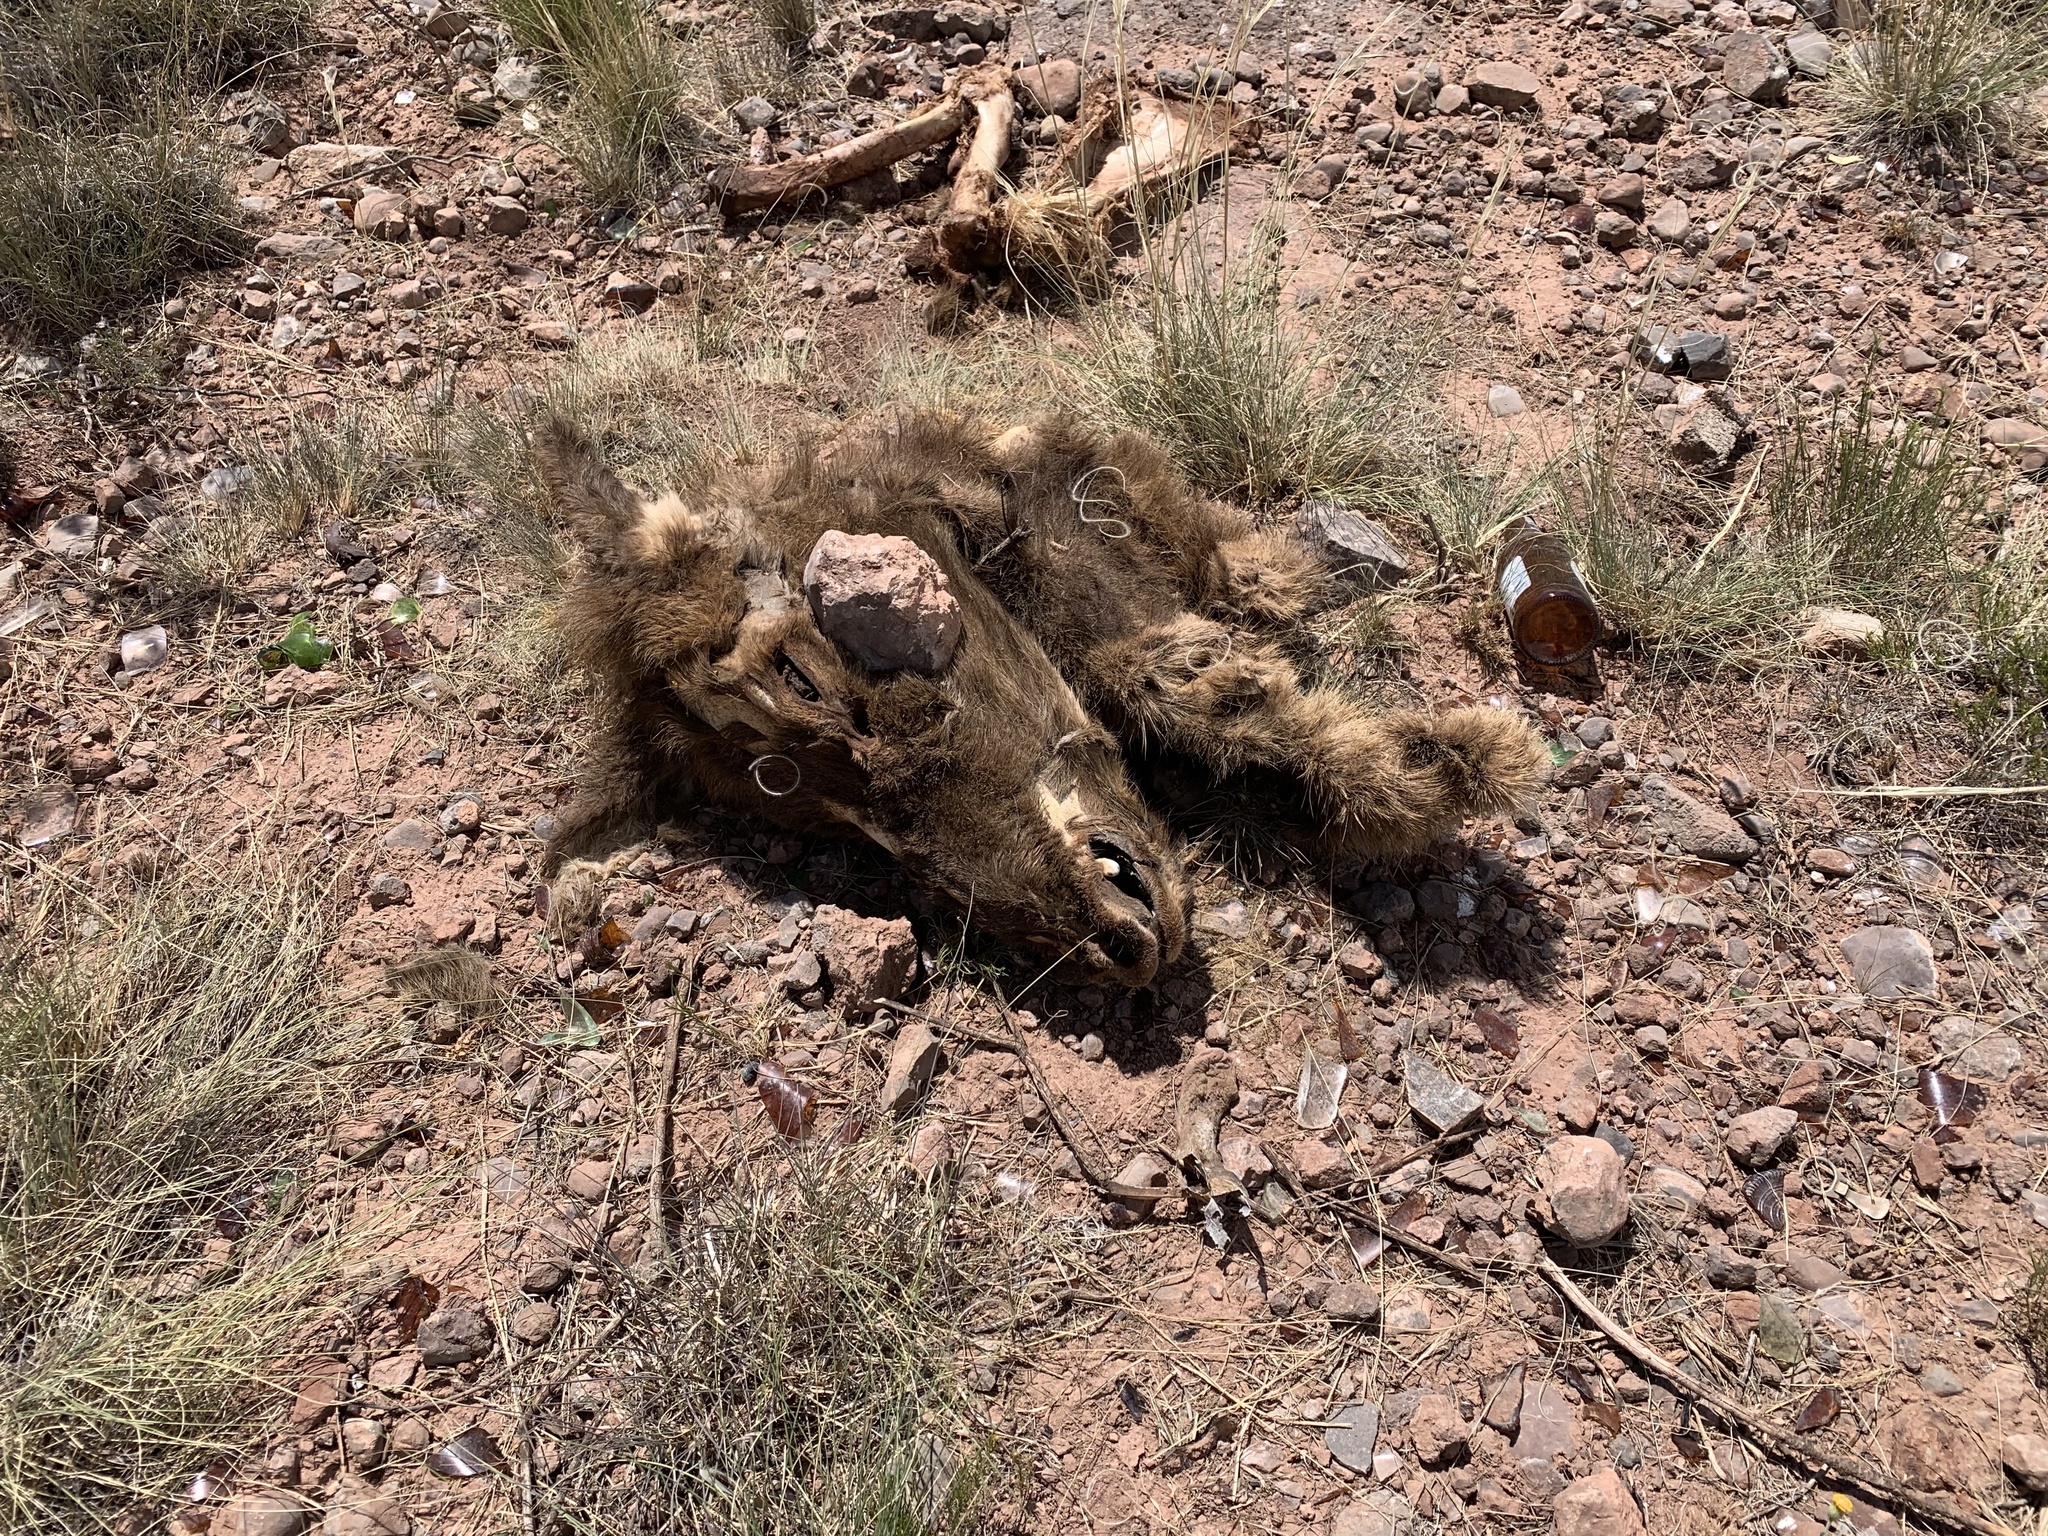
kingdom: Animalia
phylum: Chordata
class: Mammalia
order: Artiodactyla
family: Cervidae
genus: Cervus
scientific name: Cervus elaphus
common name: Red deer
